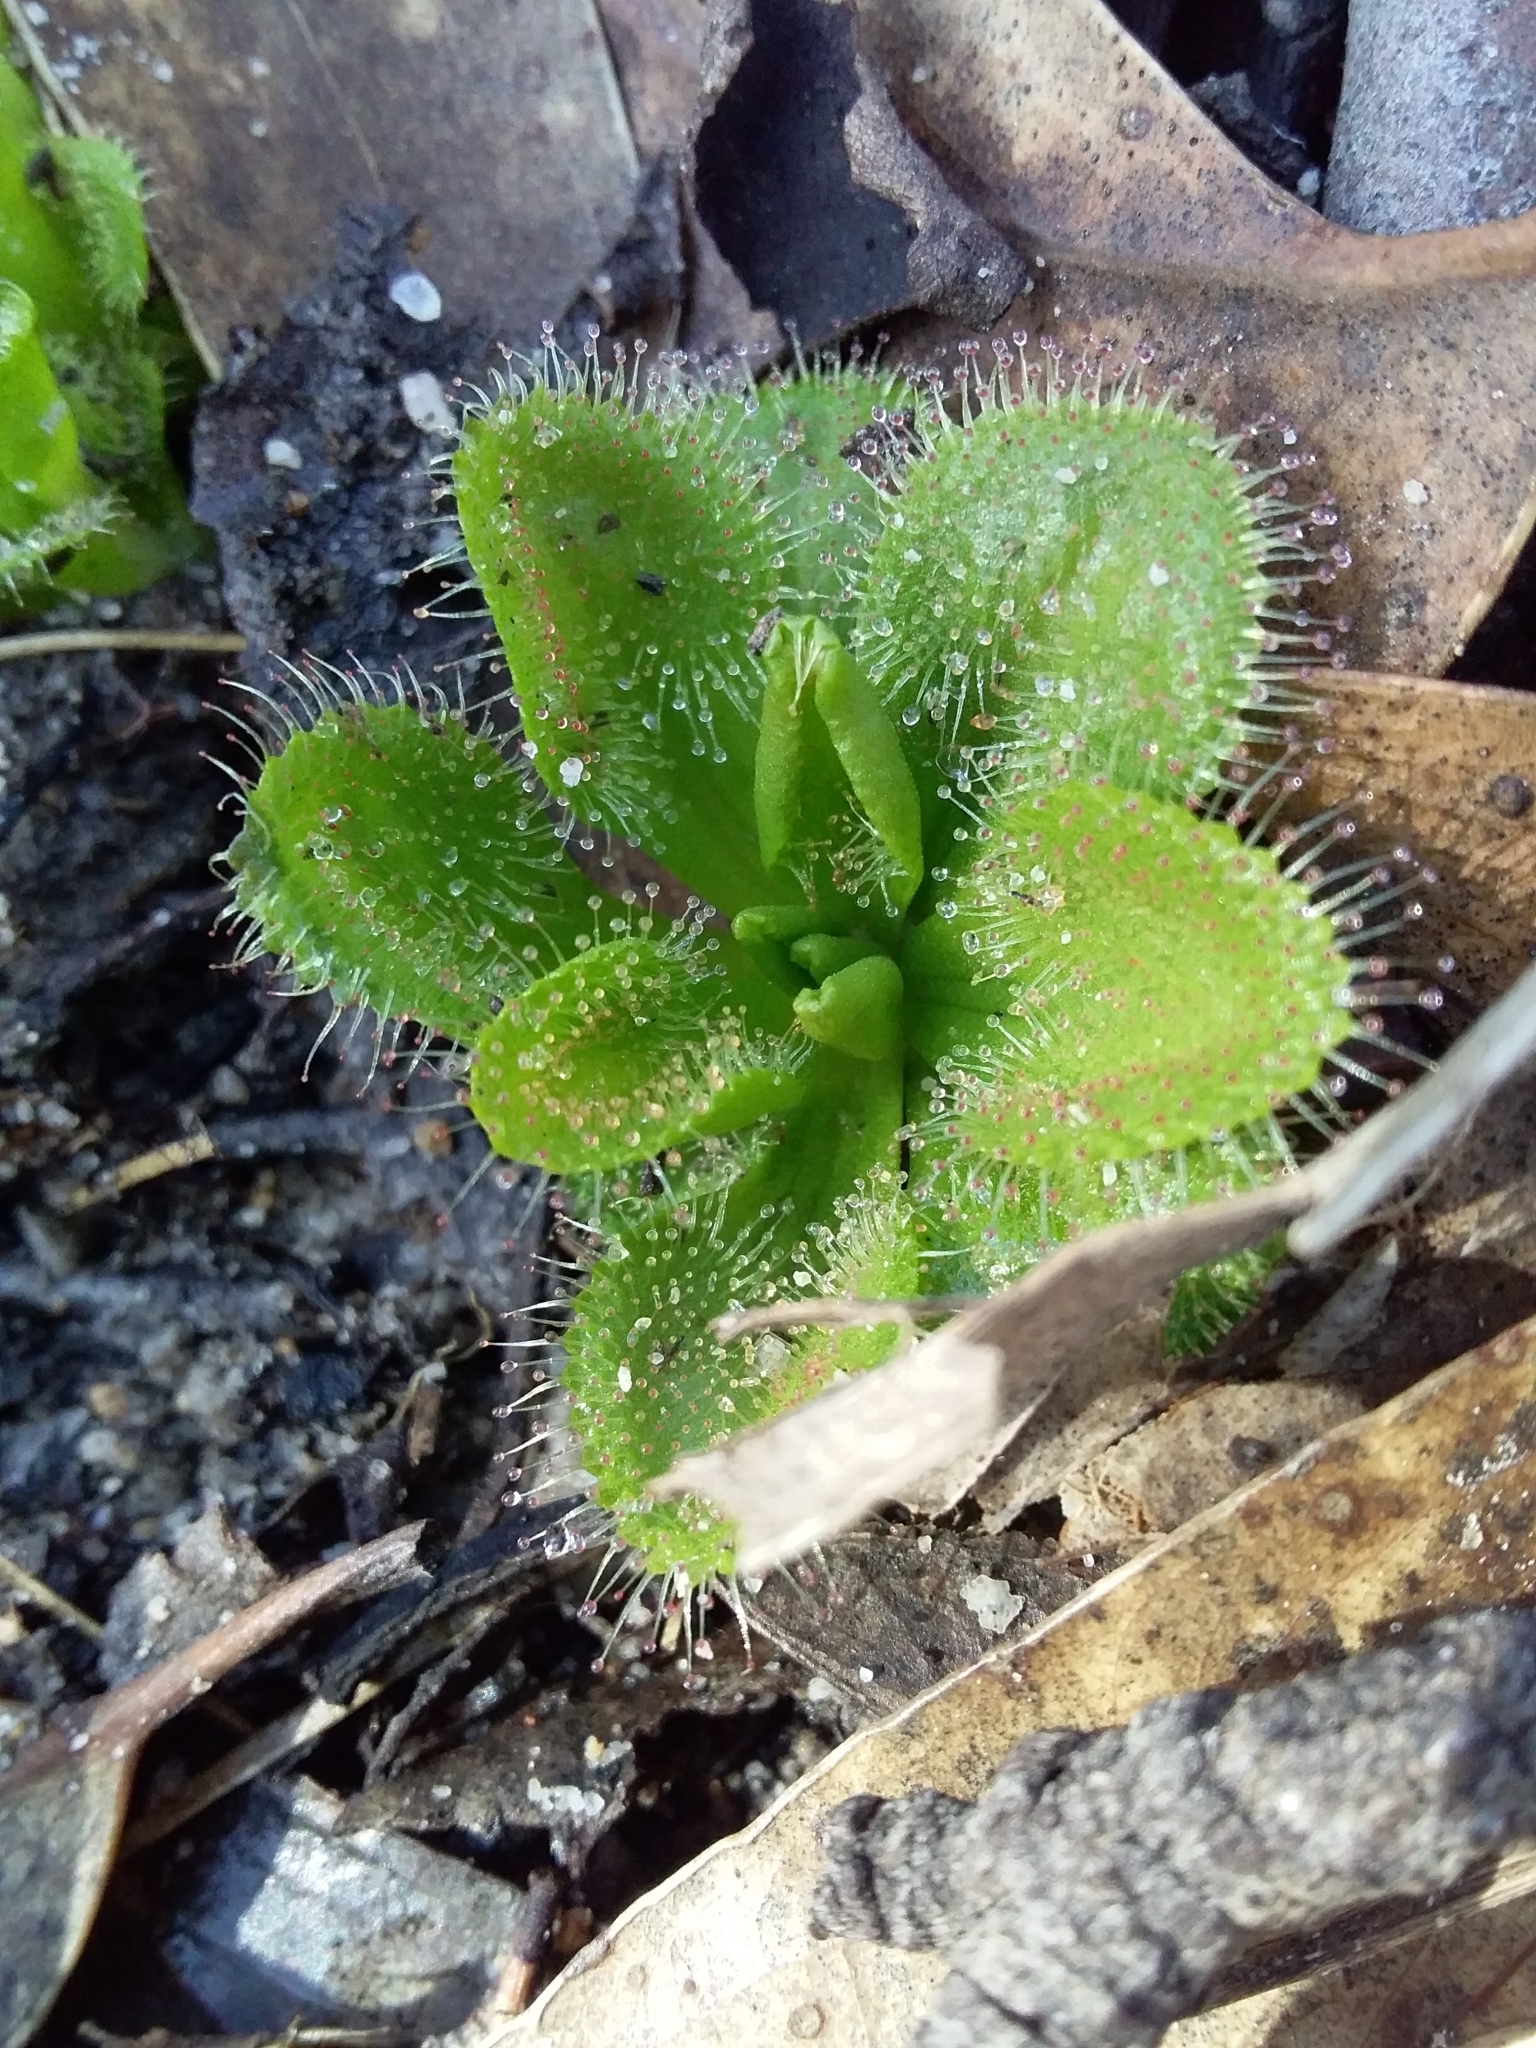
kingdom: Plantae
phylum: Tracheophyta
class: Magnoliopsida
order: Caryophyllales
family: Droseraceae
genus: Drosera
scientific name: Drosera whittakeri
